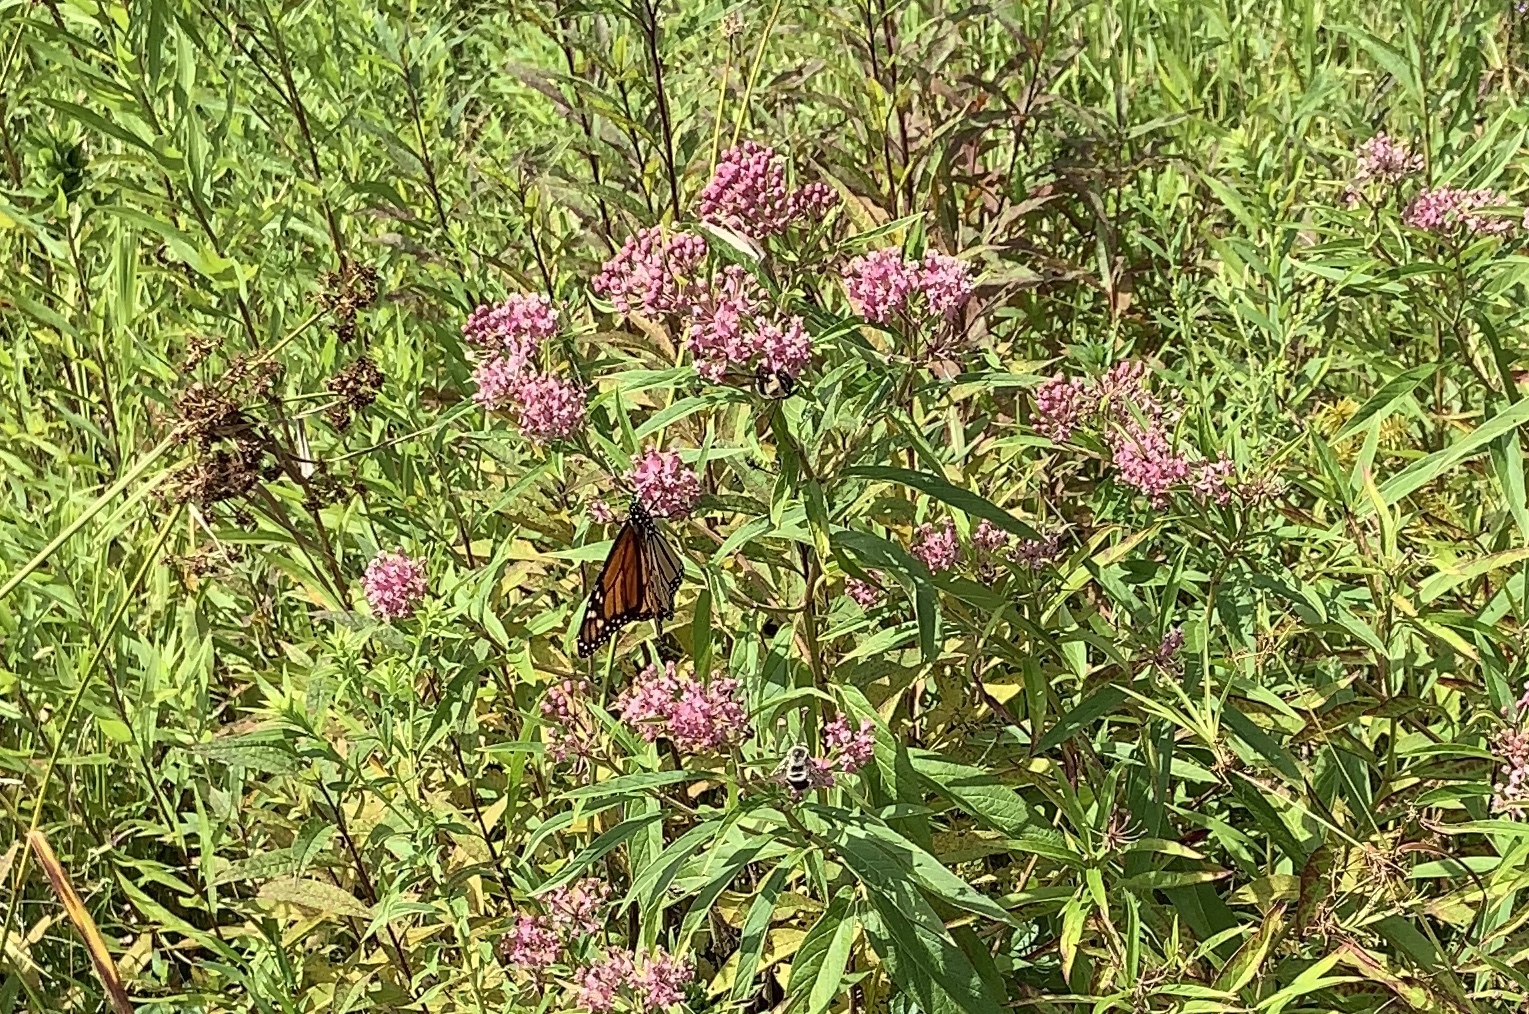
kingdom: Animalia
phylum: Arthropoda
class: Insecta
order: Lepidoptera
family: Nymphalidae
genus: Danaus
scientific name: Danaus plexippus
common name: Monarch
